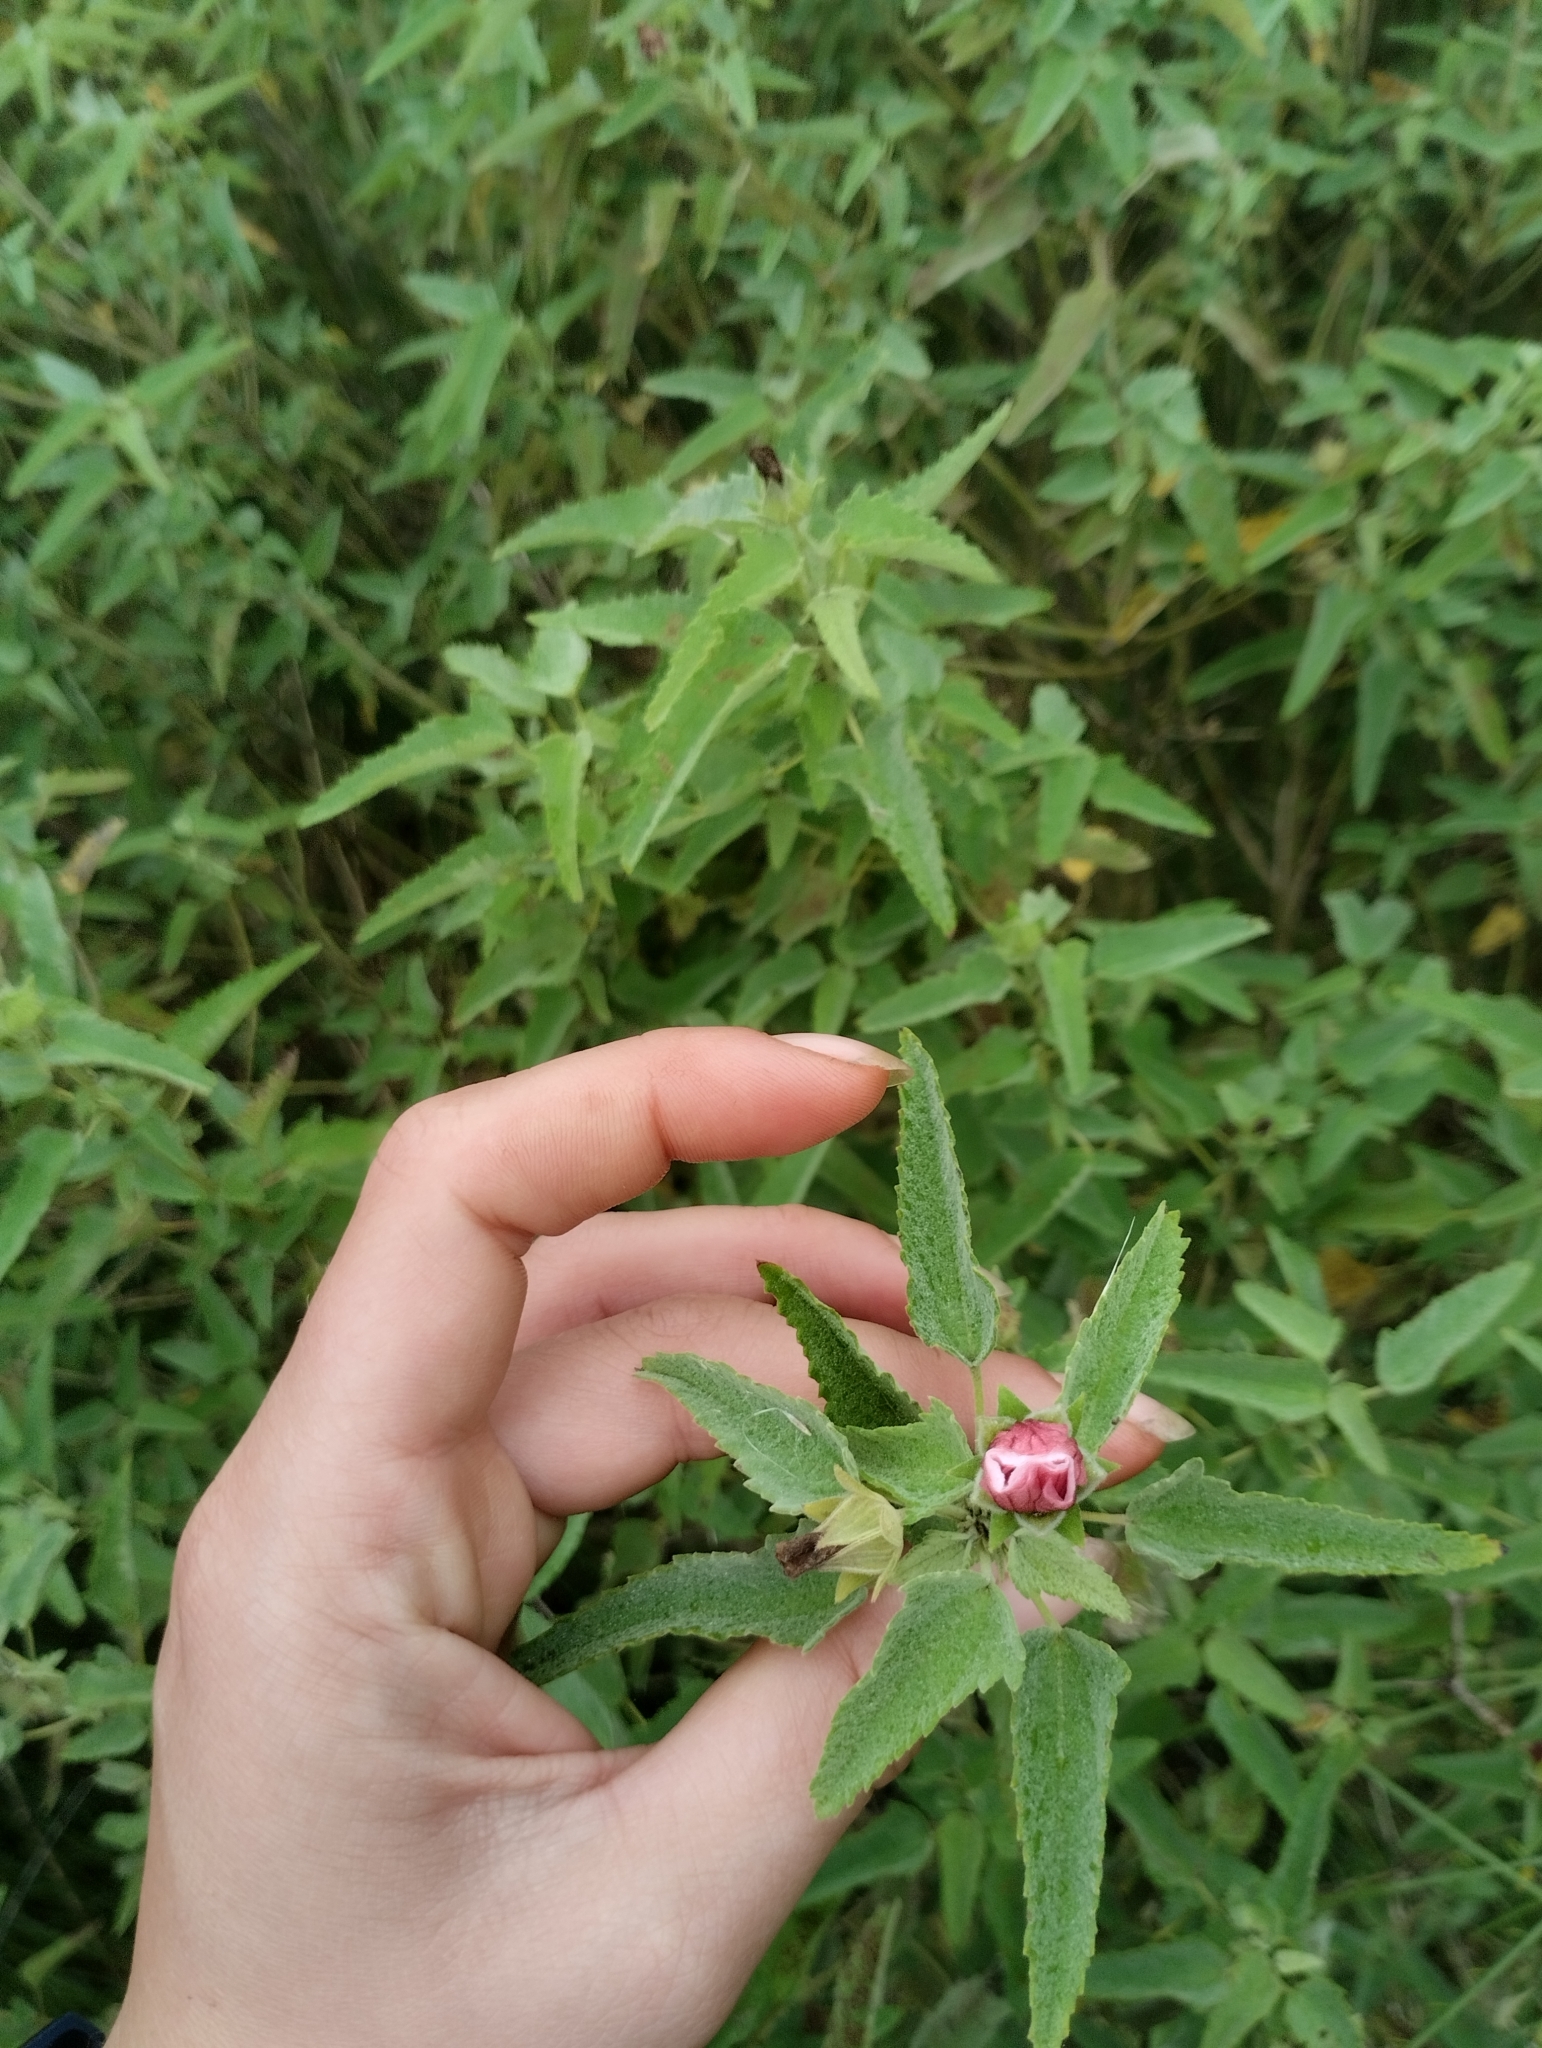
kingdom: Plantae
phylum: Tracheophyta
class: Magnoliopsida
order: Malvales
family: Malvaceae
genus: Pavonia
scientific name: Pavonia betonicaefolia
